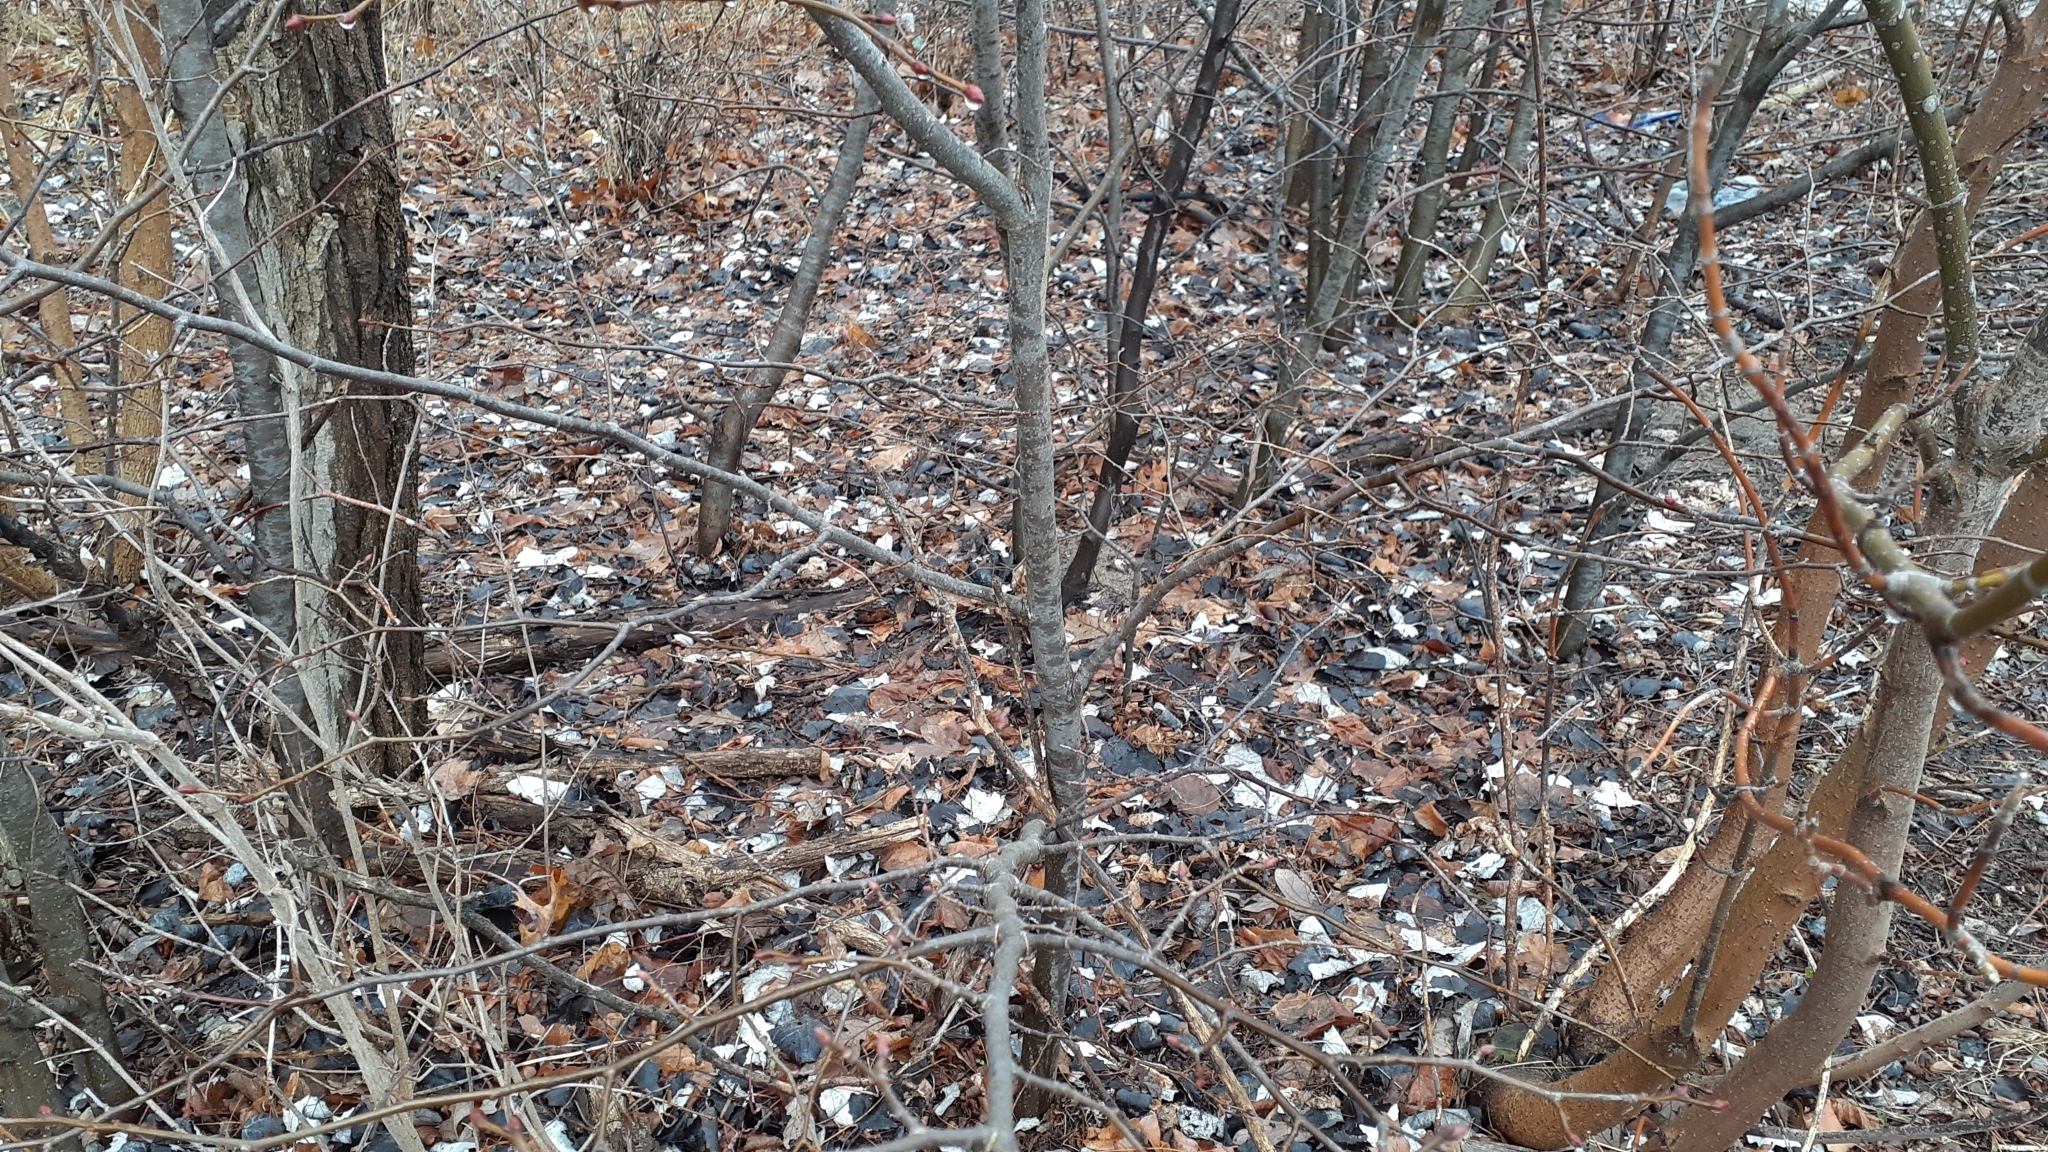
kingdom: Plantae
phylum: Tracheophyta
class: Magnoliopsida
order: Malvales
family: Malvaceae
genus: Tilia
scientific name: Tilia cordata
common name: Small-leaved lime
